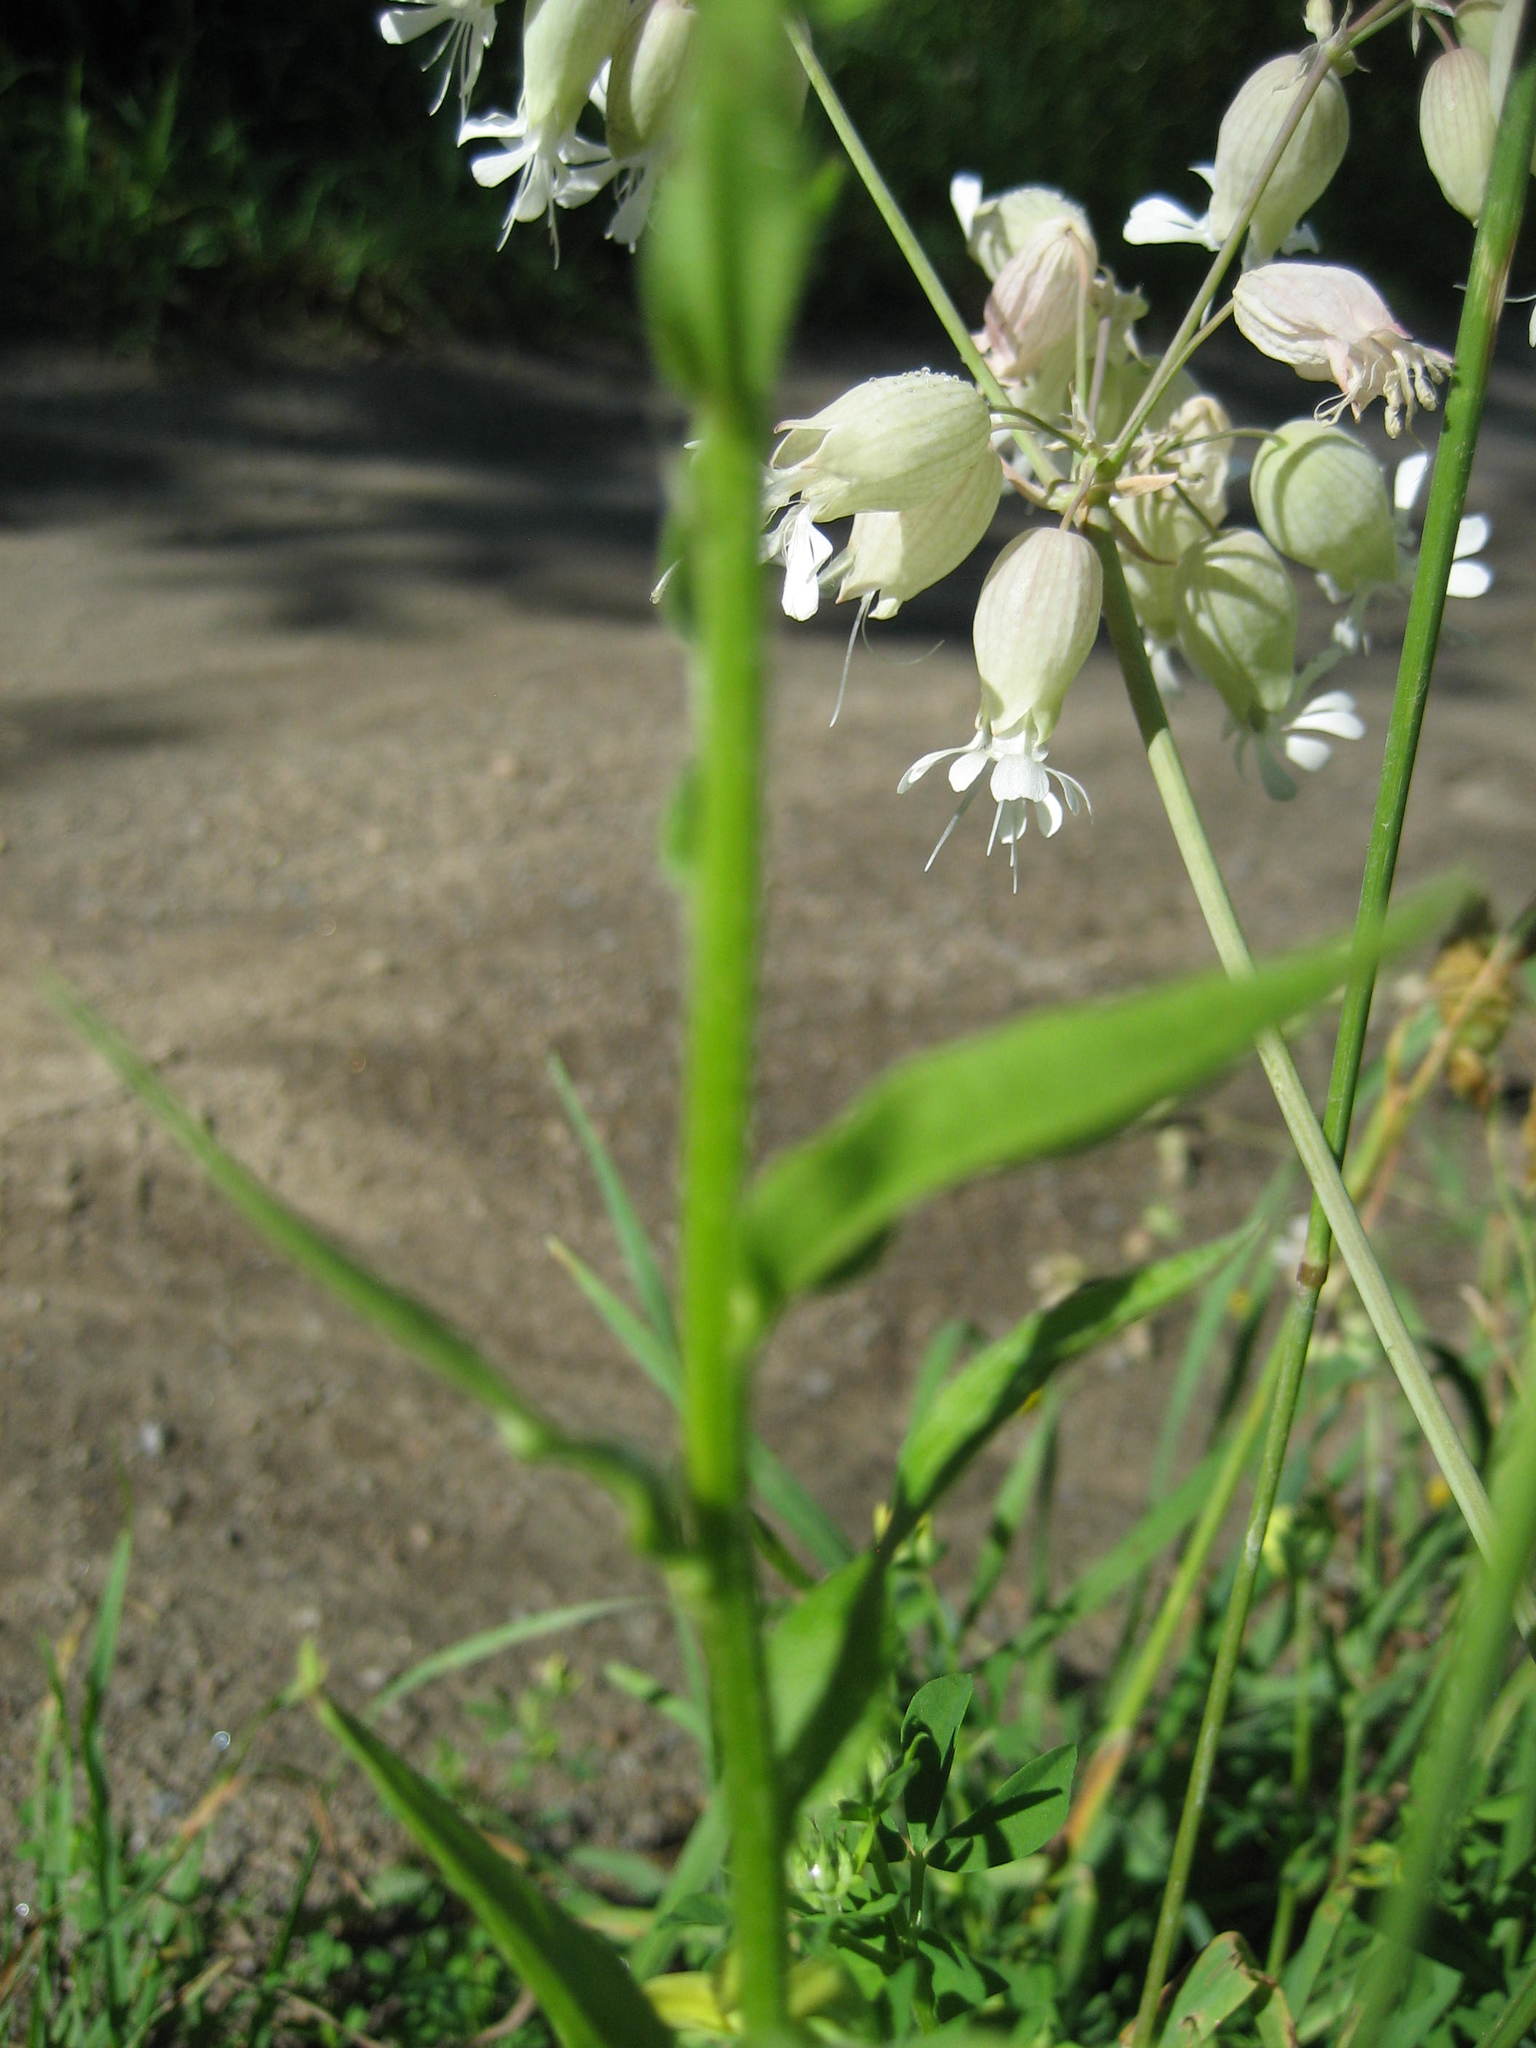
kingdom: Plantae
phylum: Tracheophyta
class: Magnoliopsida
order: Caryophyllales
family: Caryophyllaceae
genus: Silene
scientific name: Silene vulgaris
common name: Bladder campion
